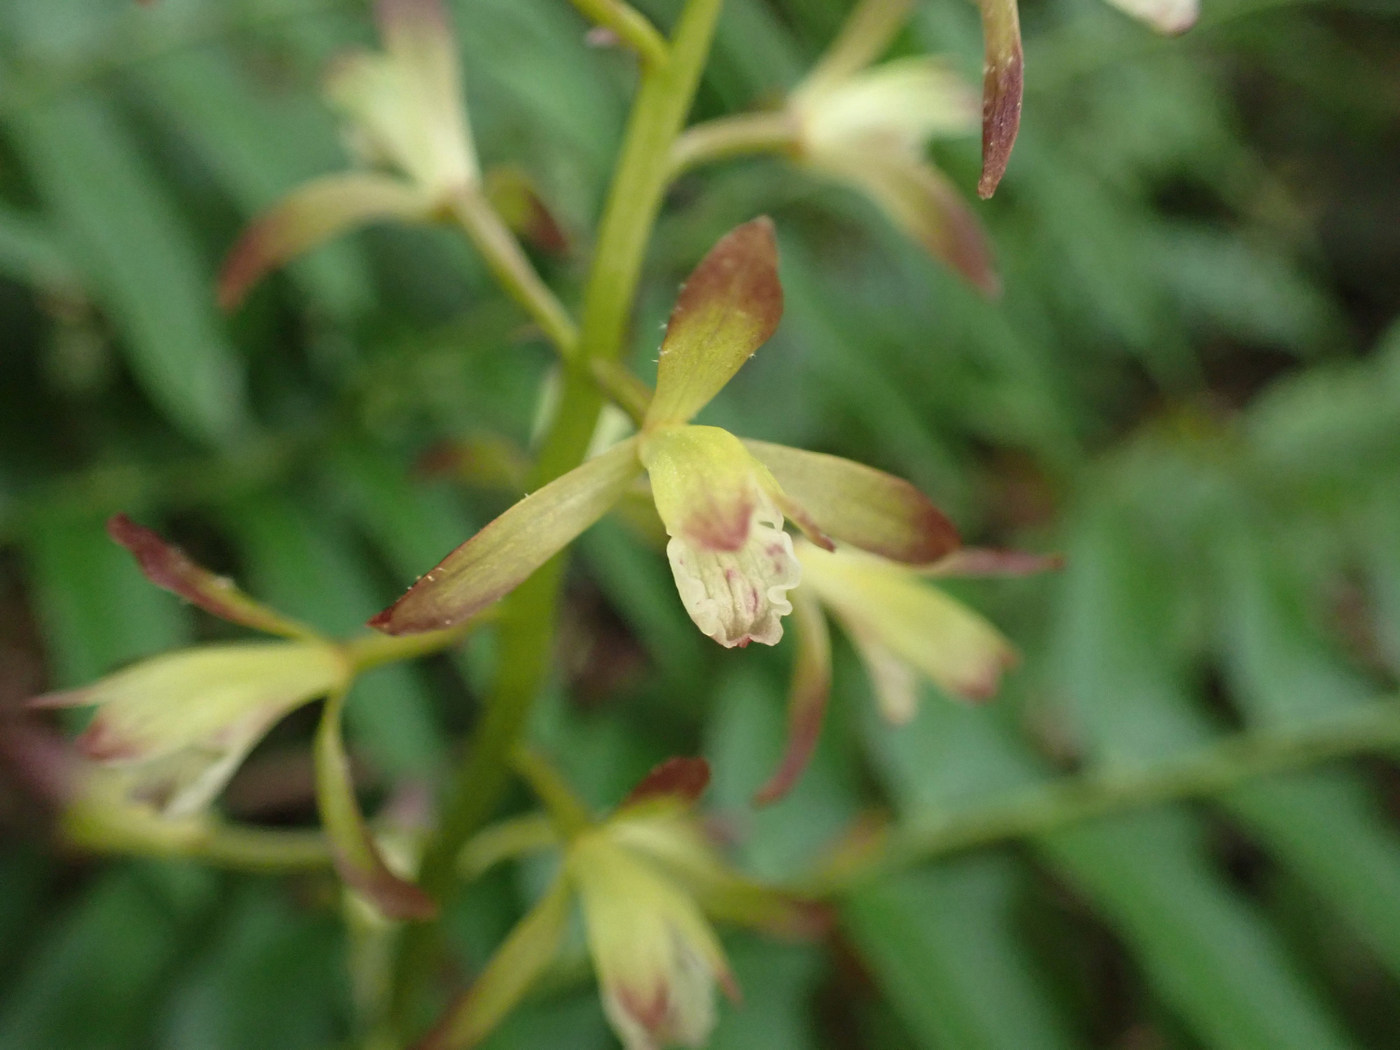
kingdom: Plantae
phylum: Tracheophyta
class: Liliopsida
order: Asparagales
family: Orchidaceae
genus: Aplectrum
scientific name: Aplectrum hyemale
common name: Adam-and-eve
